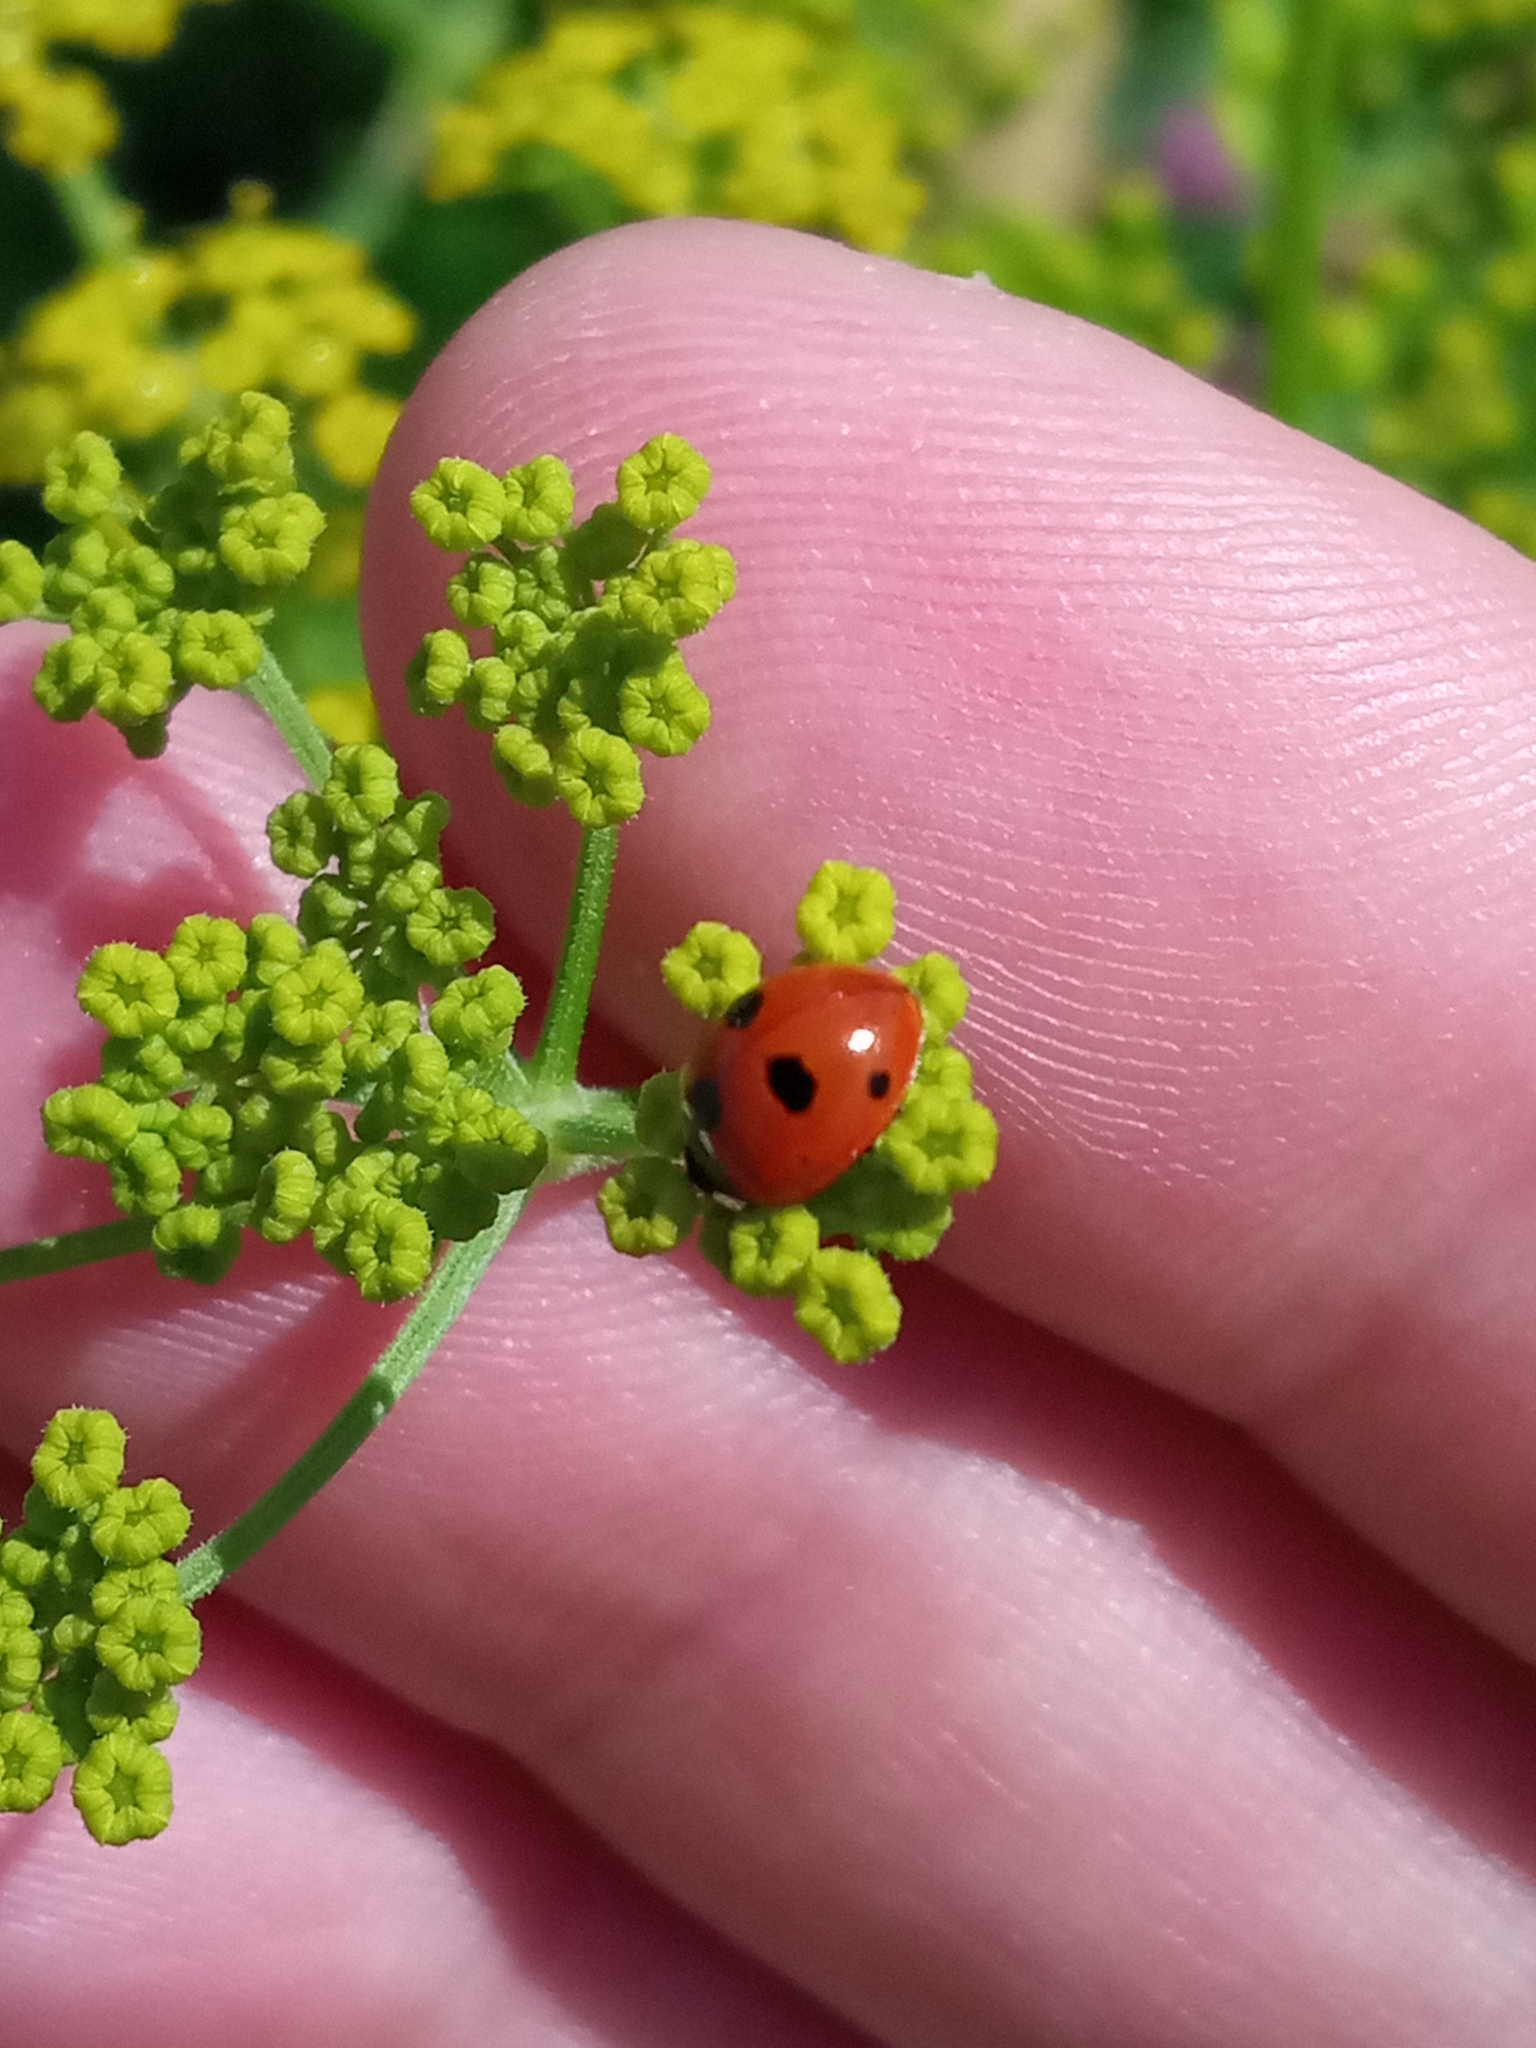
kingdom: Animalia
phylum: Arthropoda
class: Insecta
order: Coleoptera
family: Coccinellidae
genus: Coccinella
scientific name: Coccinella quinquepunctata
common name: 5-spot ladybird
